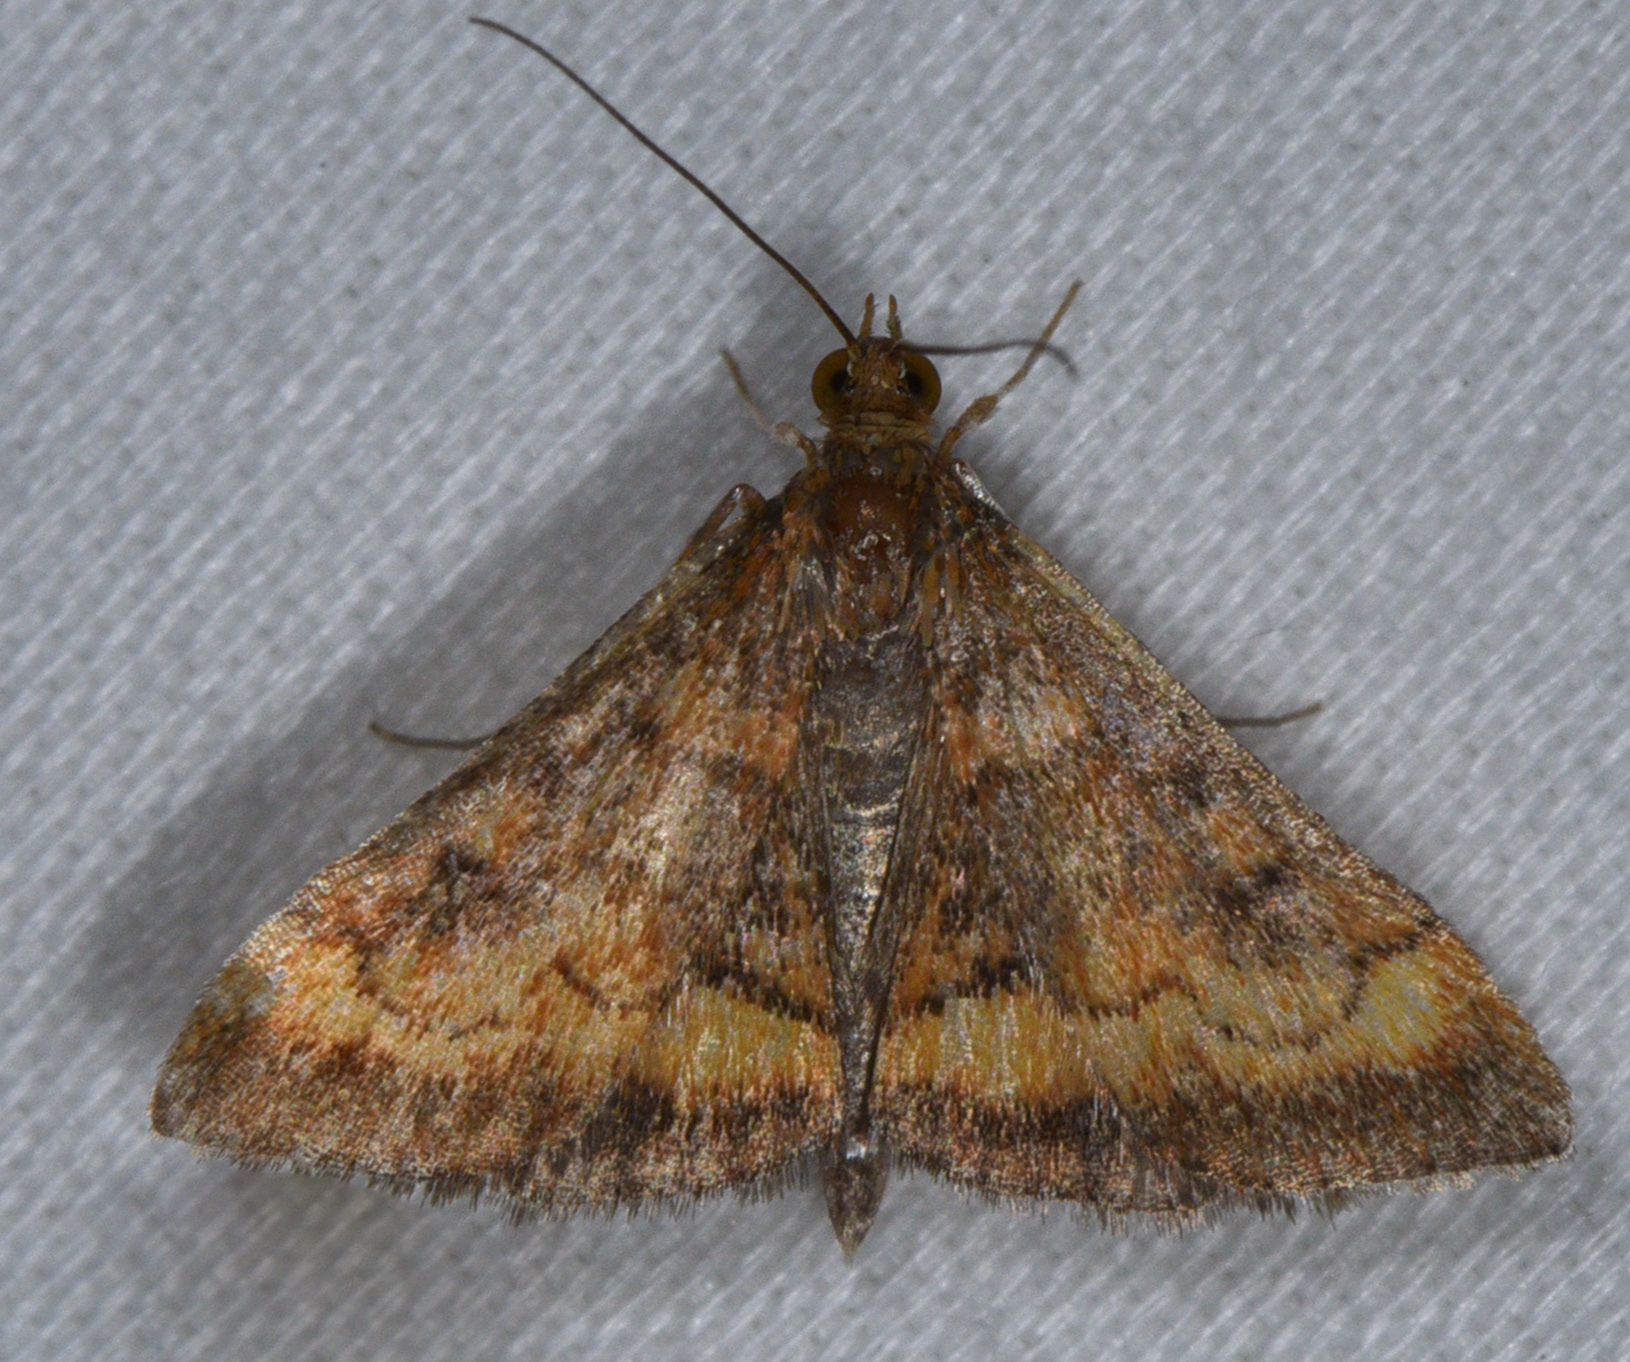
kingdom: Animalia
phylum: Arthropoda
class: Insecta
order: Lepidoptera
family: Crambidae
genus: Pyrausta
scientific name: Pyrausta californicalis
